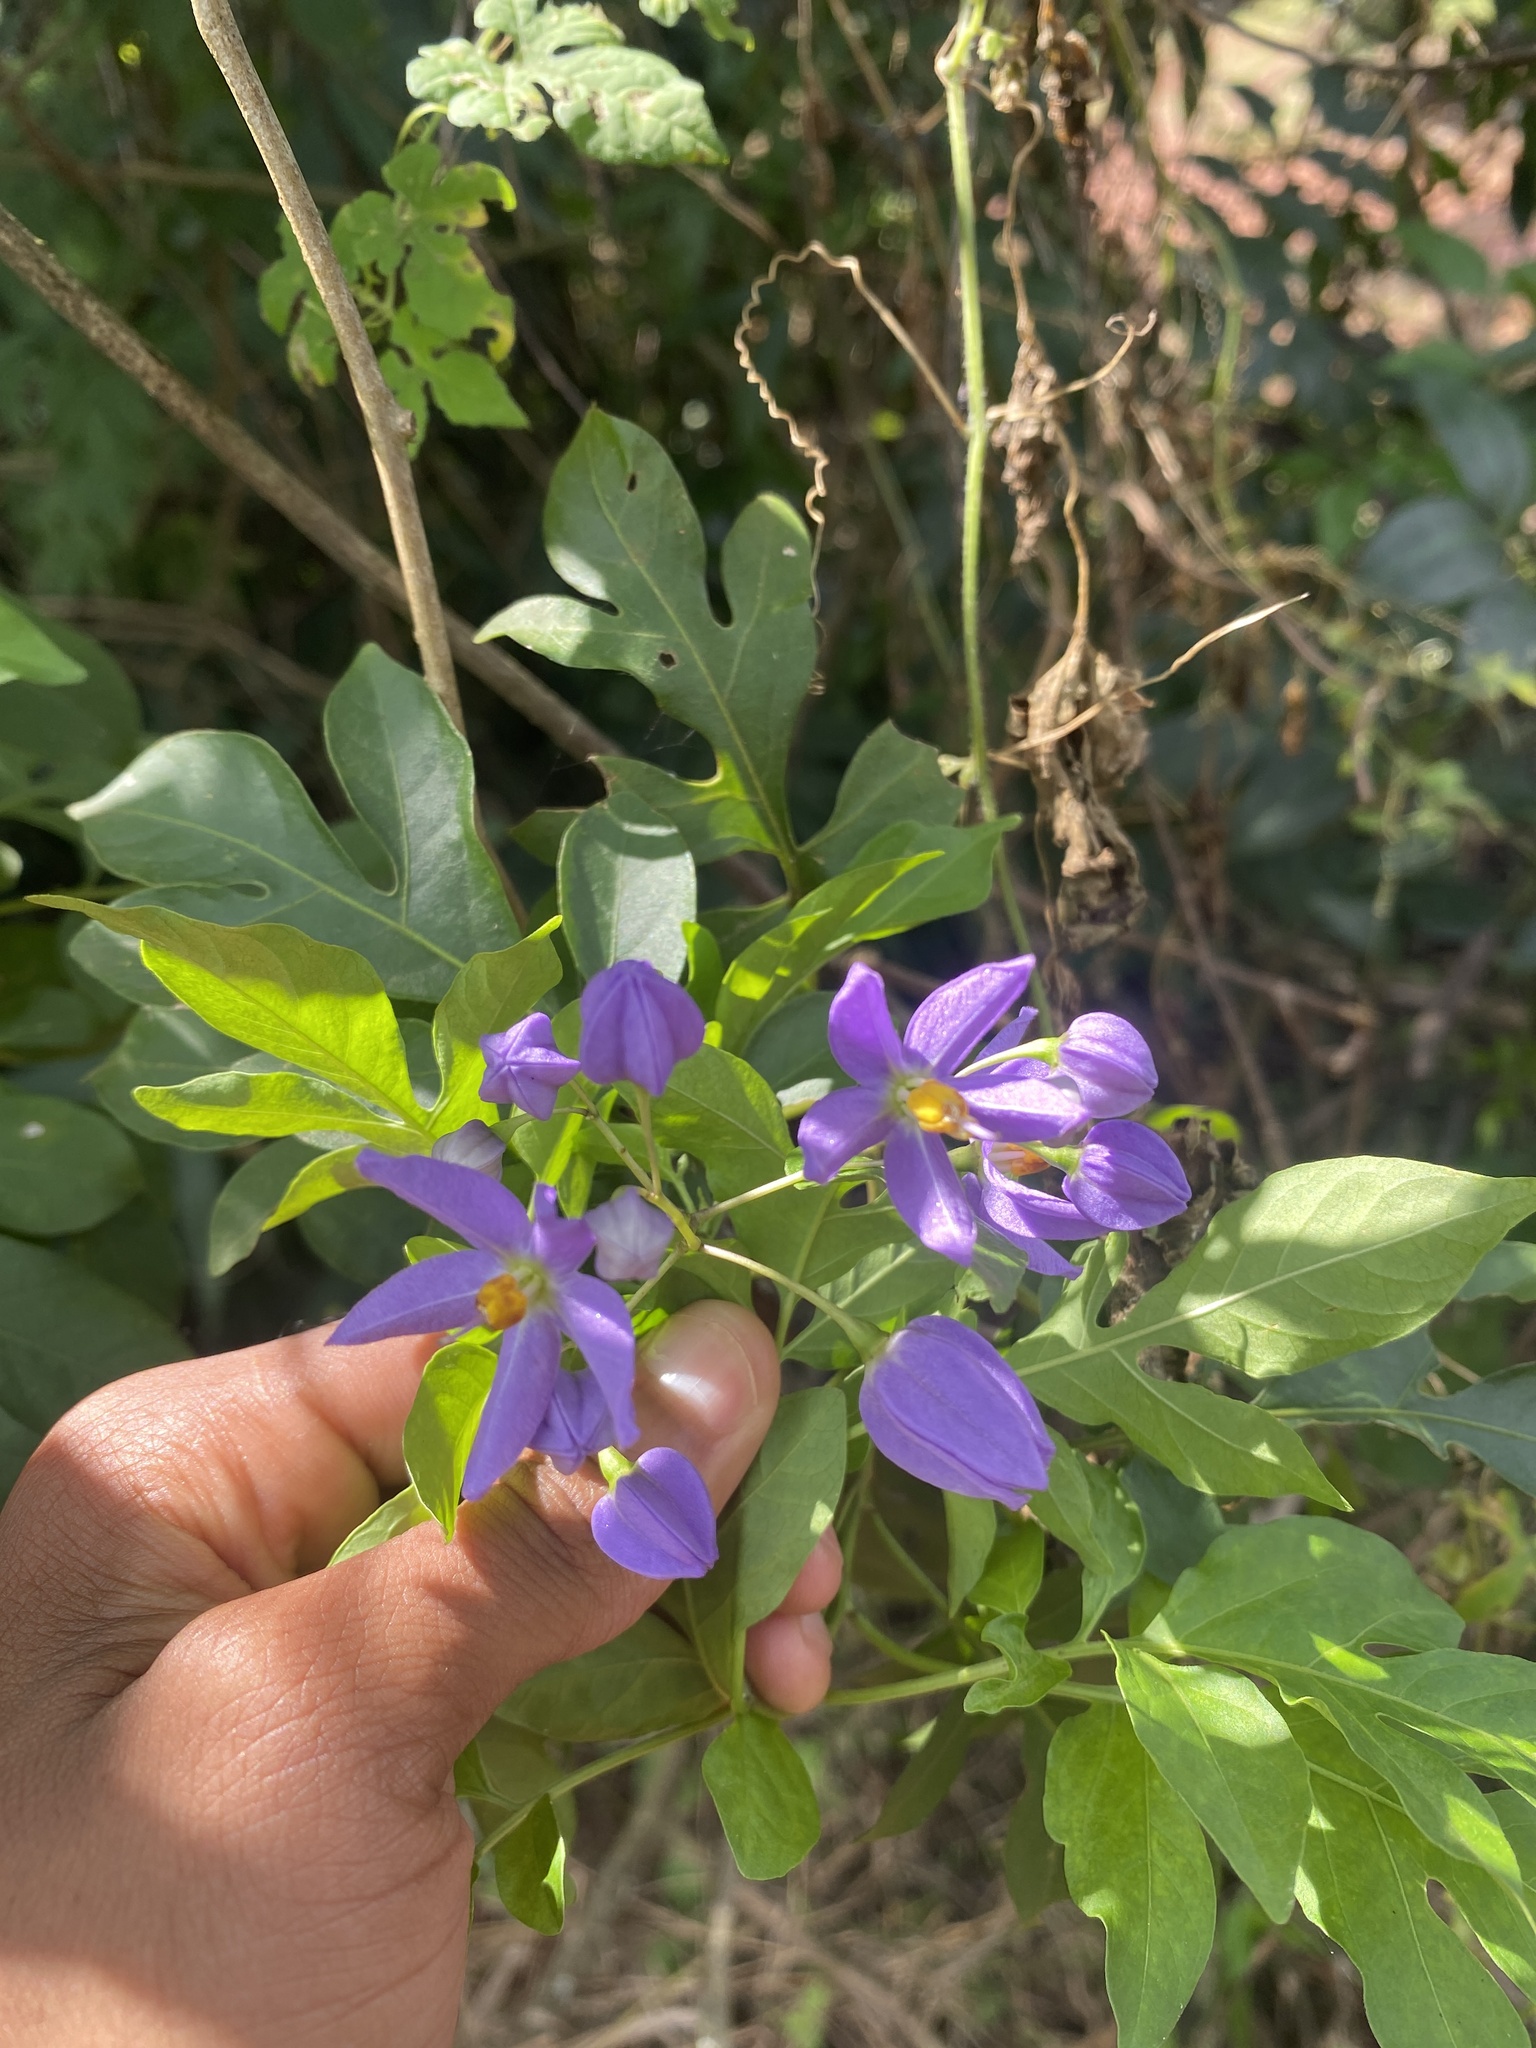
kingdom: Plantae
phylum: Tracheophyta
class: Magnoliopsida
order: Solanales
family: Solanaceae
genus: Solanum
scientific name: Solanum seaforthianum
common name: Brazilian nightshade
